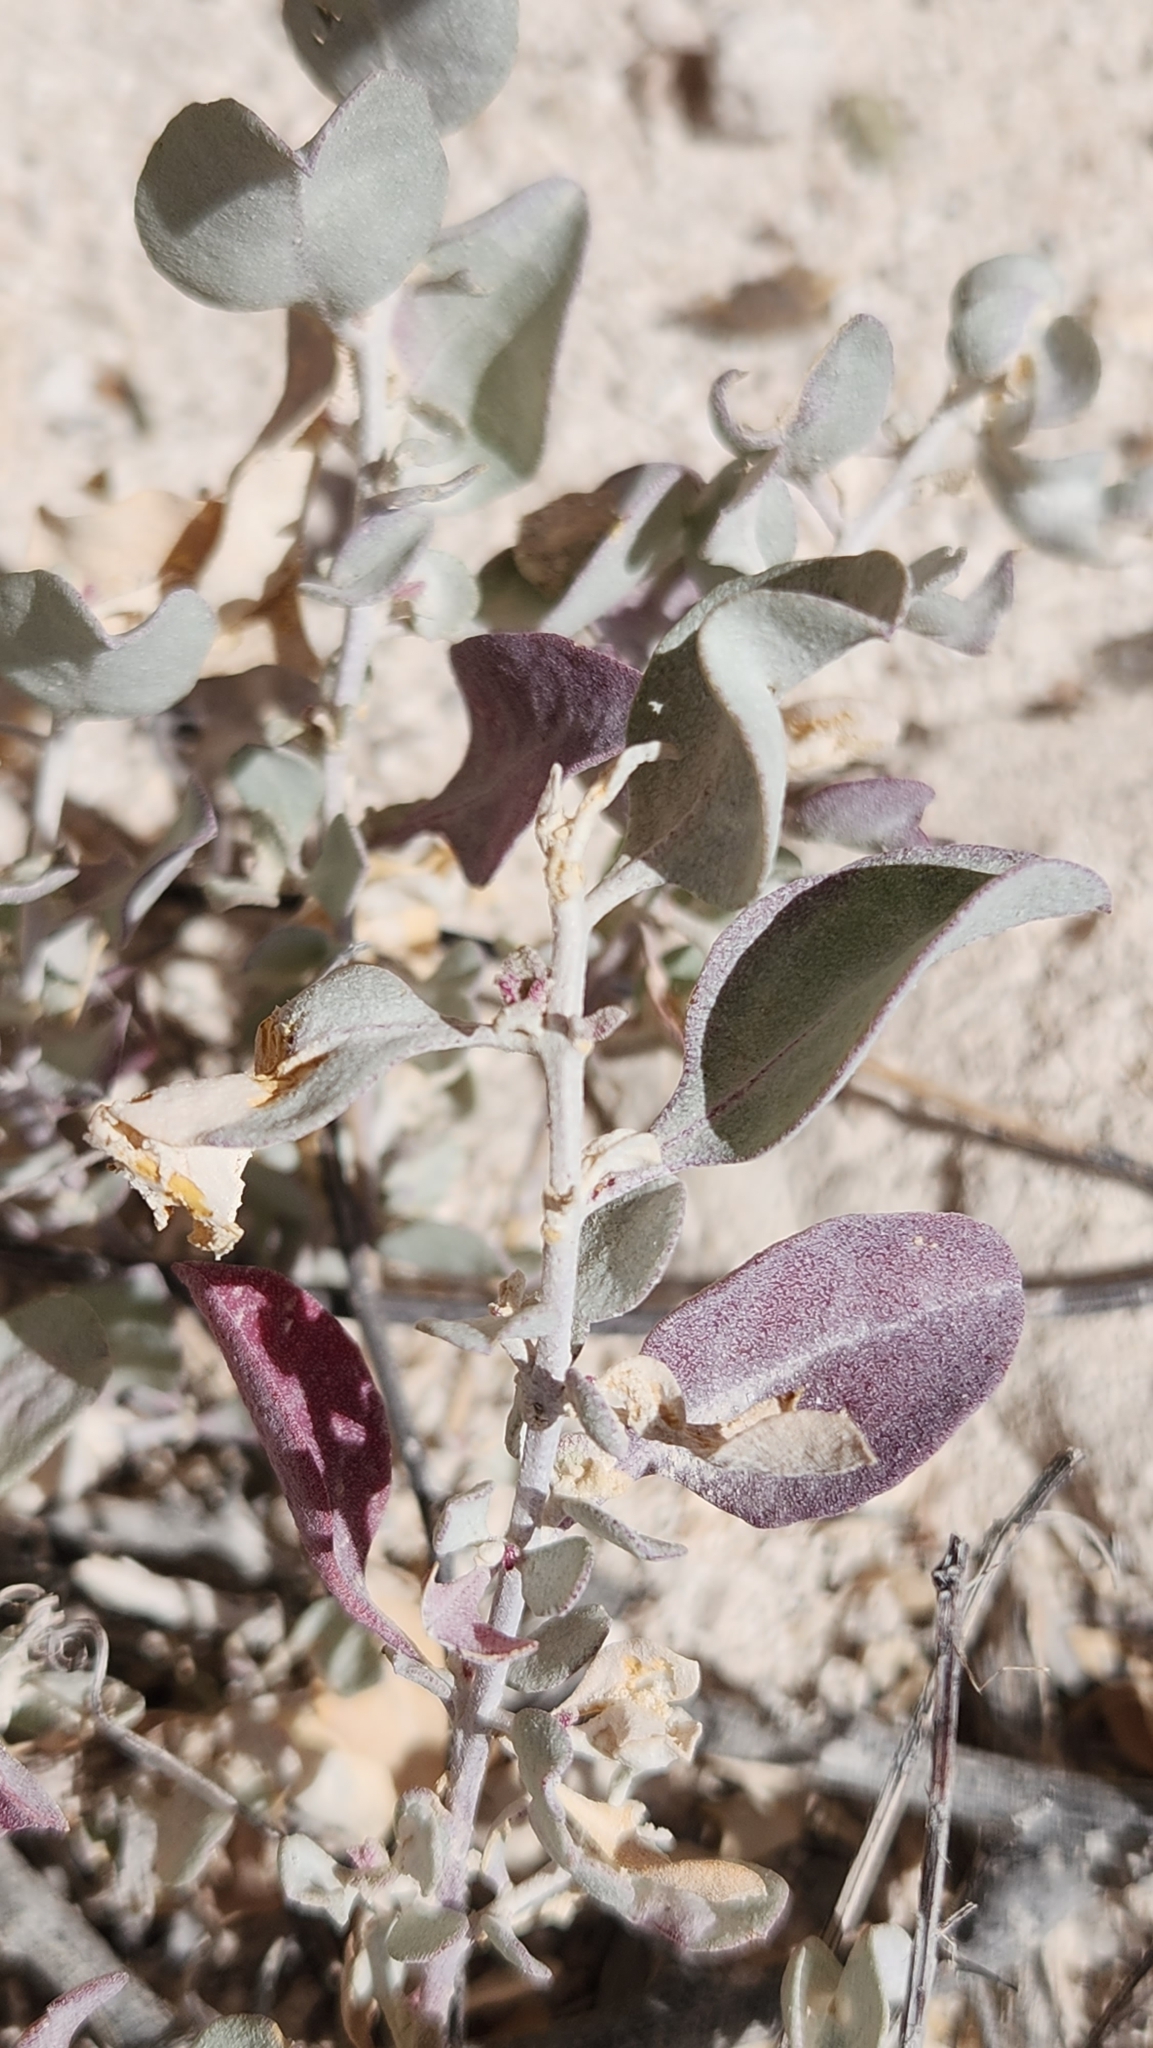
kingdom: Plantae
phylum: Tracheophyta
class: Magnoliopsida
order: Caryophyllales
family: Amaranthaceae
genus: Atriplex
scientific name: Atriplex barclayana
